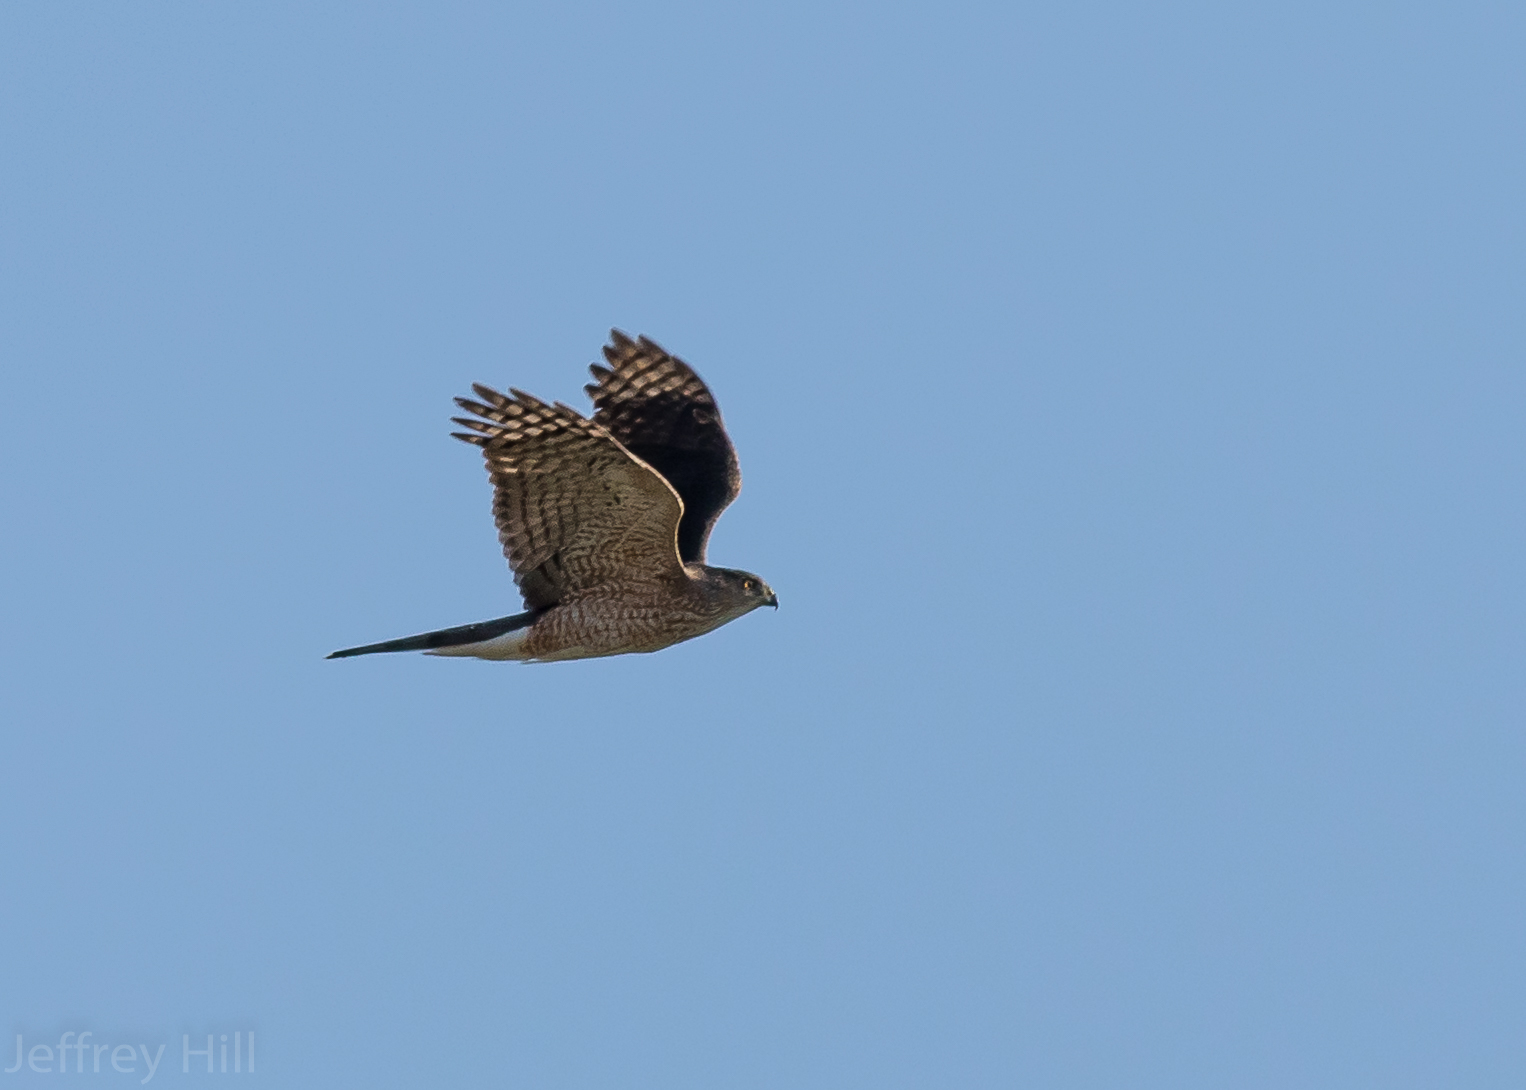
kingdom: Animalia
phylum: Chordata
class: Aves
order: Accipitriformes
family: Accipitridae
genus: Accipiter
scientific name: Accipiter cooperii
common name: Cooper's hawk
